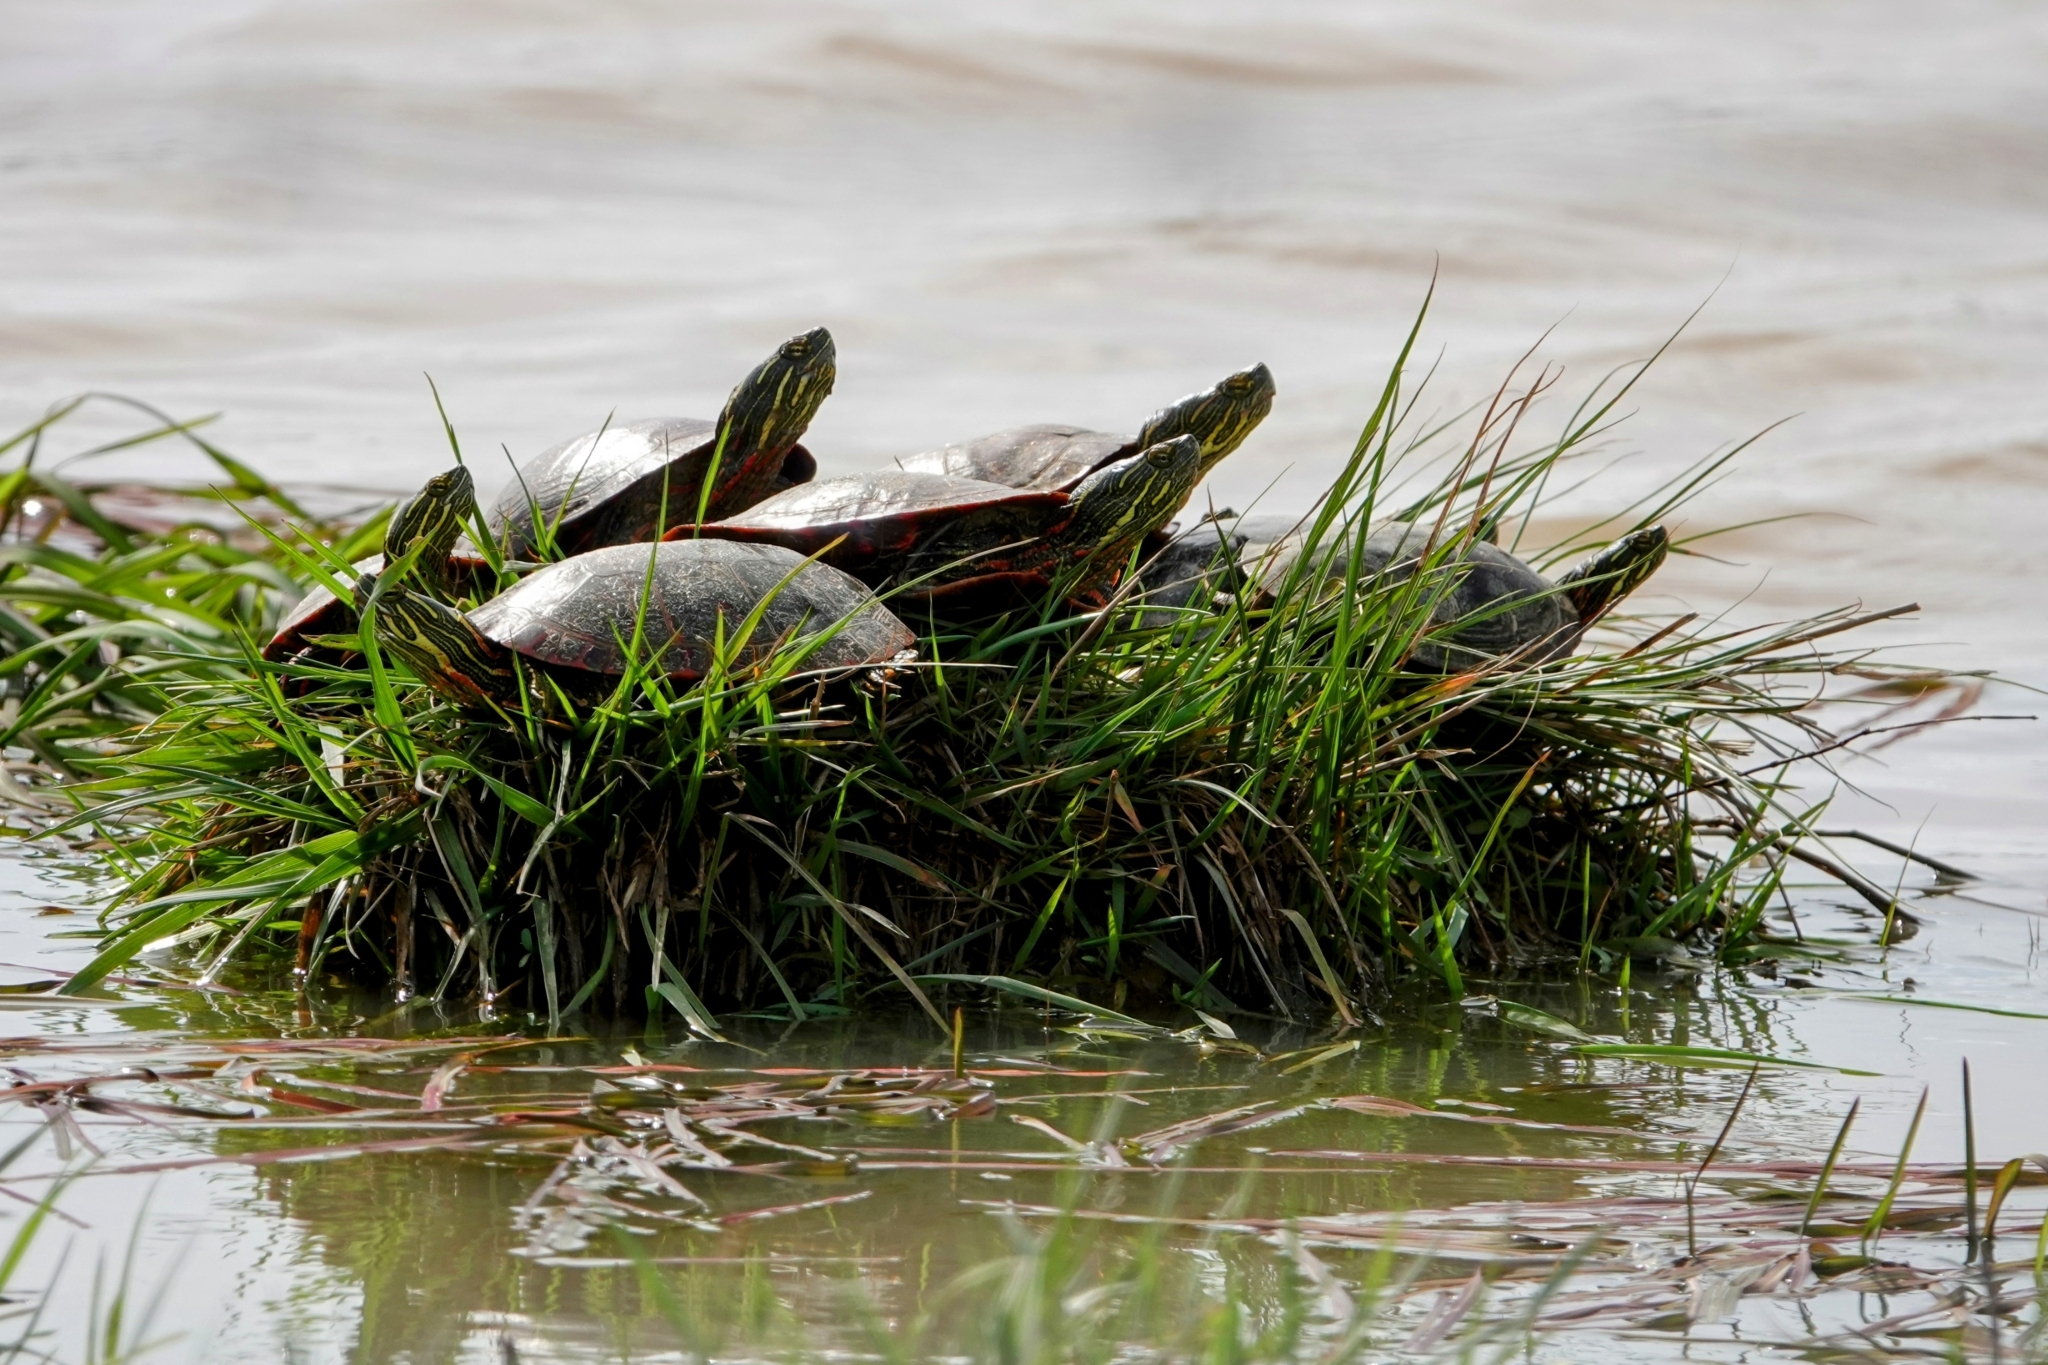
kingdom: Animalia
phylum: Chordata
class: Testudines
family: Emydidae
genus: Chrysemys
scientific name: Chrysemys picta
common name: Painted turtle
